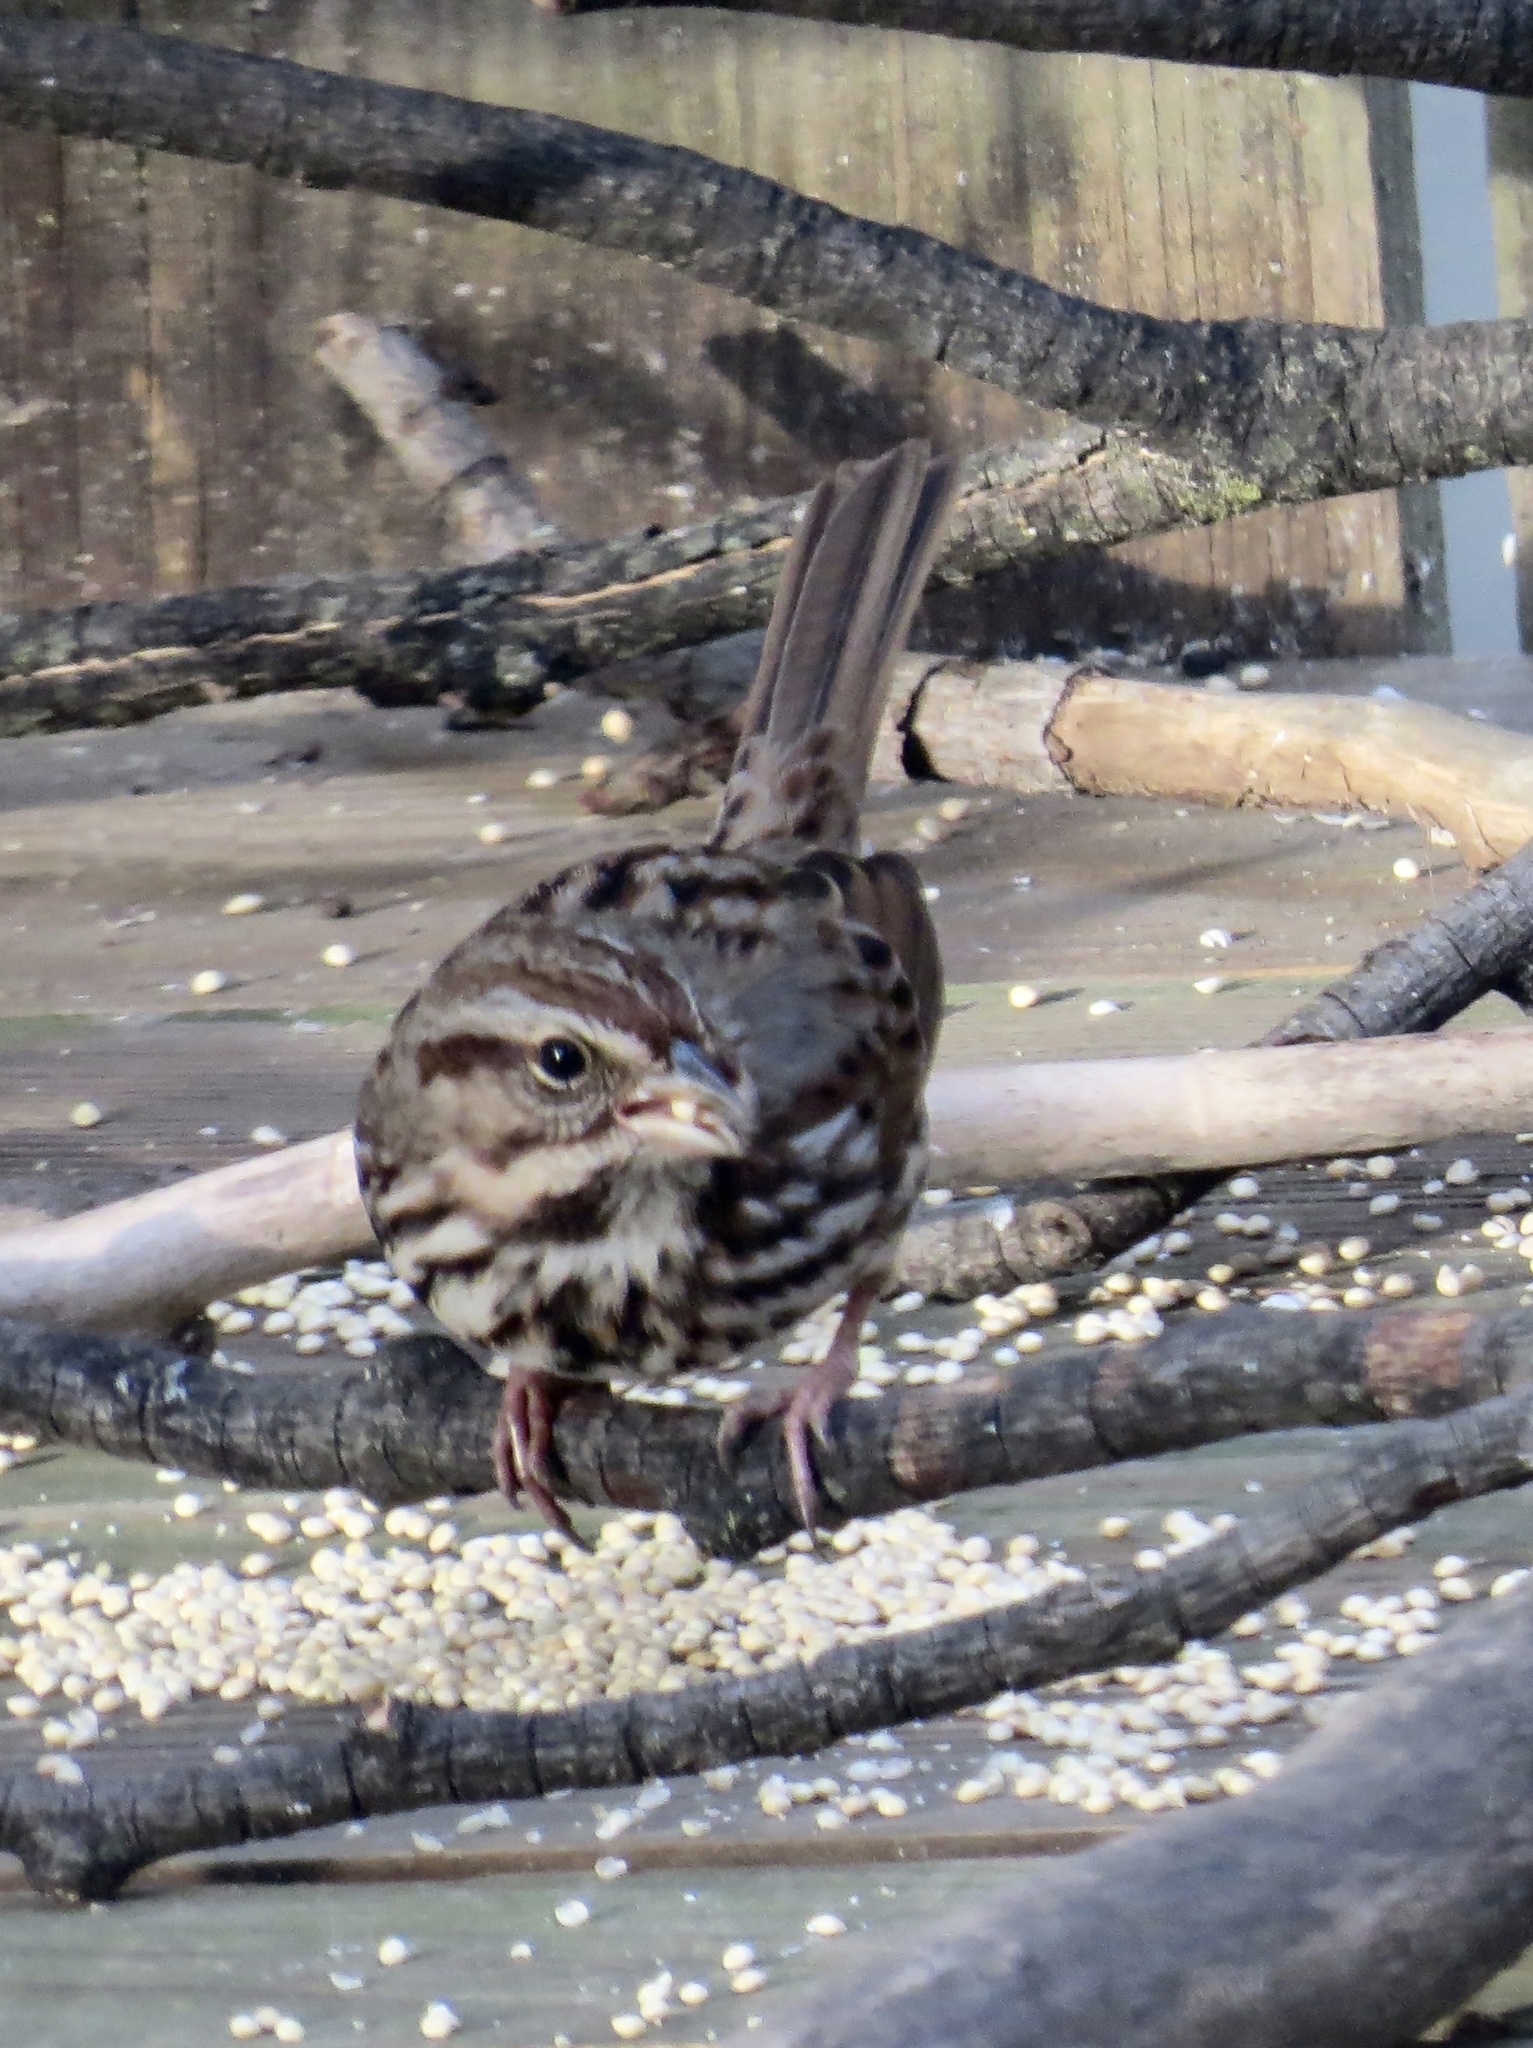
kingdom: Animalia
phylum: Chordata
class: Aves
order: Passeriformes
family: Passerellidae
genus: Melospiza
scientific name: Melospiza melodia
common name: Song sparrow
